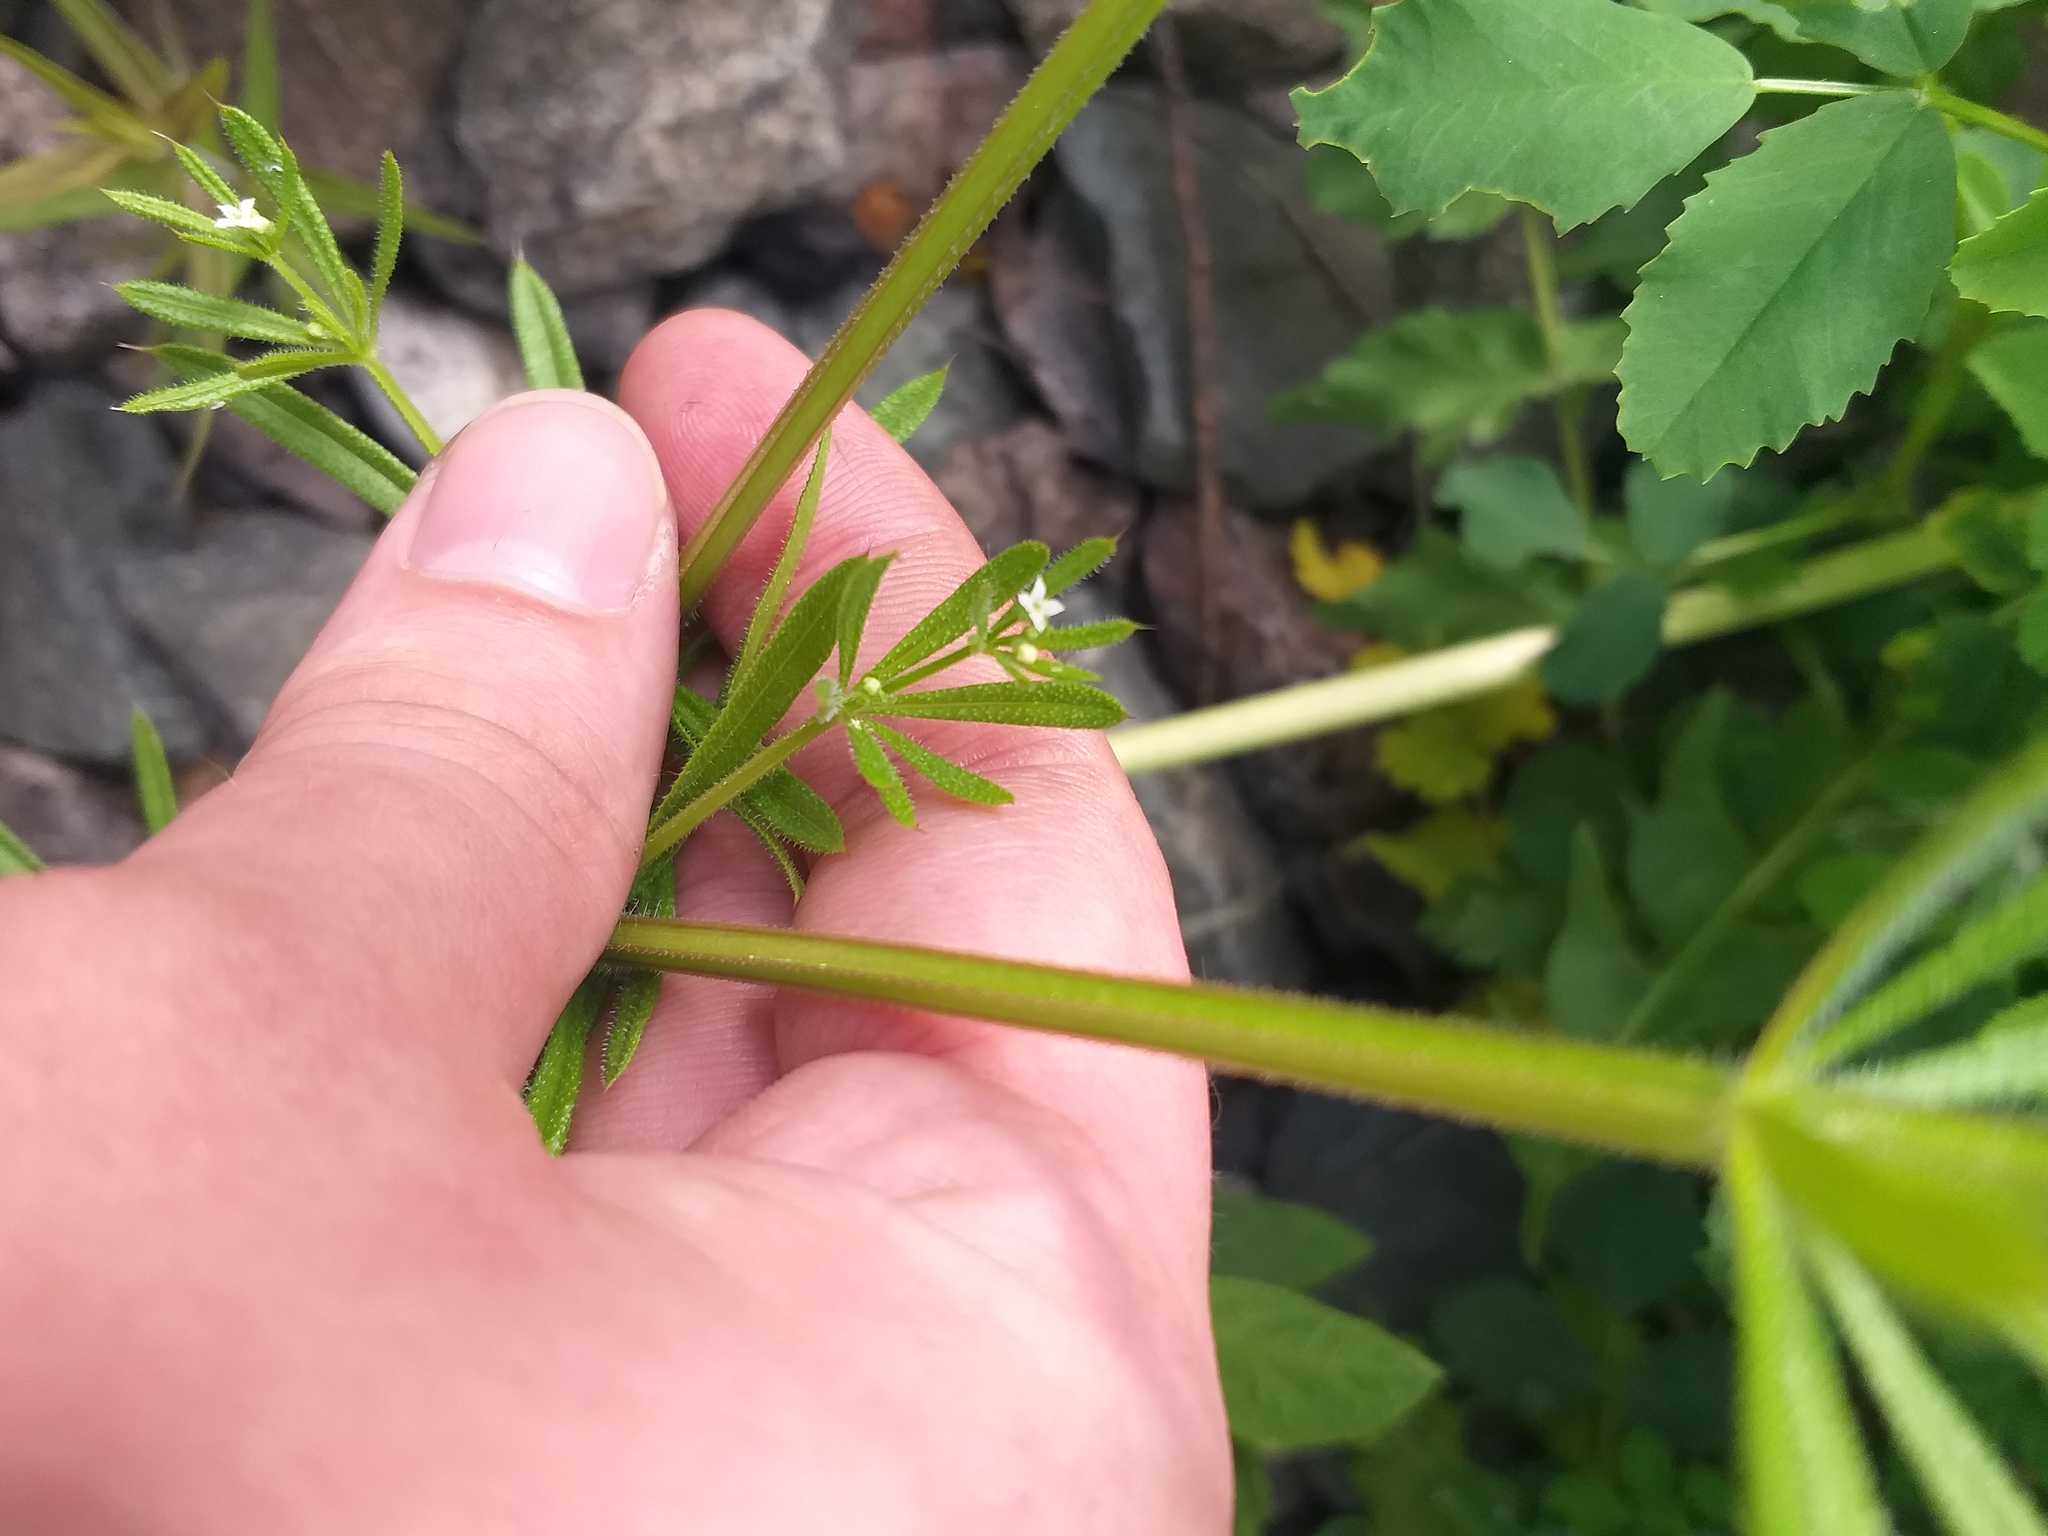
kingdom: Plantae
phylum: Tracheophyta
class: Magnoliopsida
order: Gentianales
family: Rubiaceae
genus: Galium
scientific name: Galium aparine
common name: Cleavers
